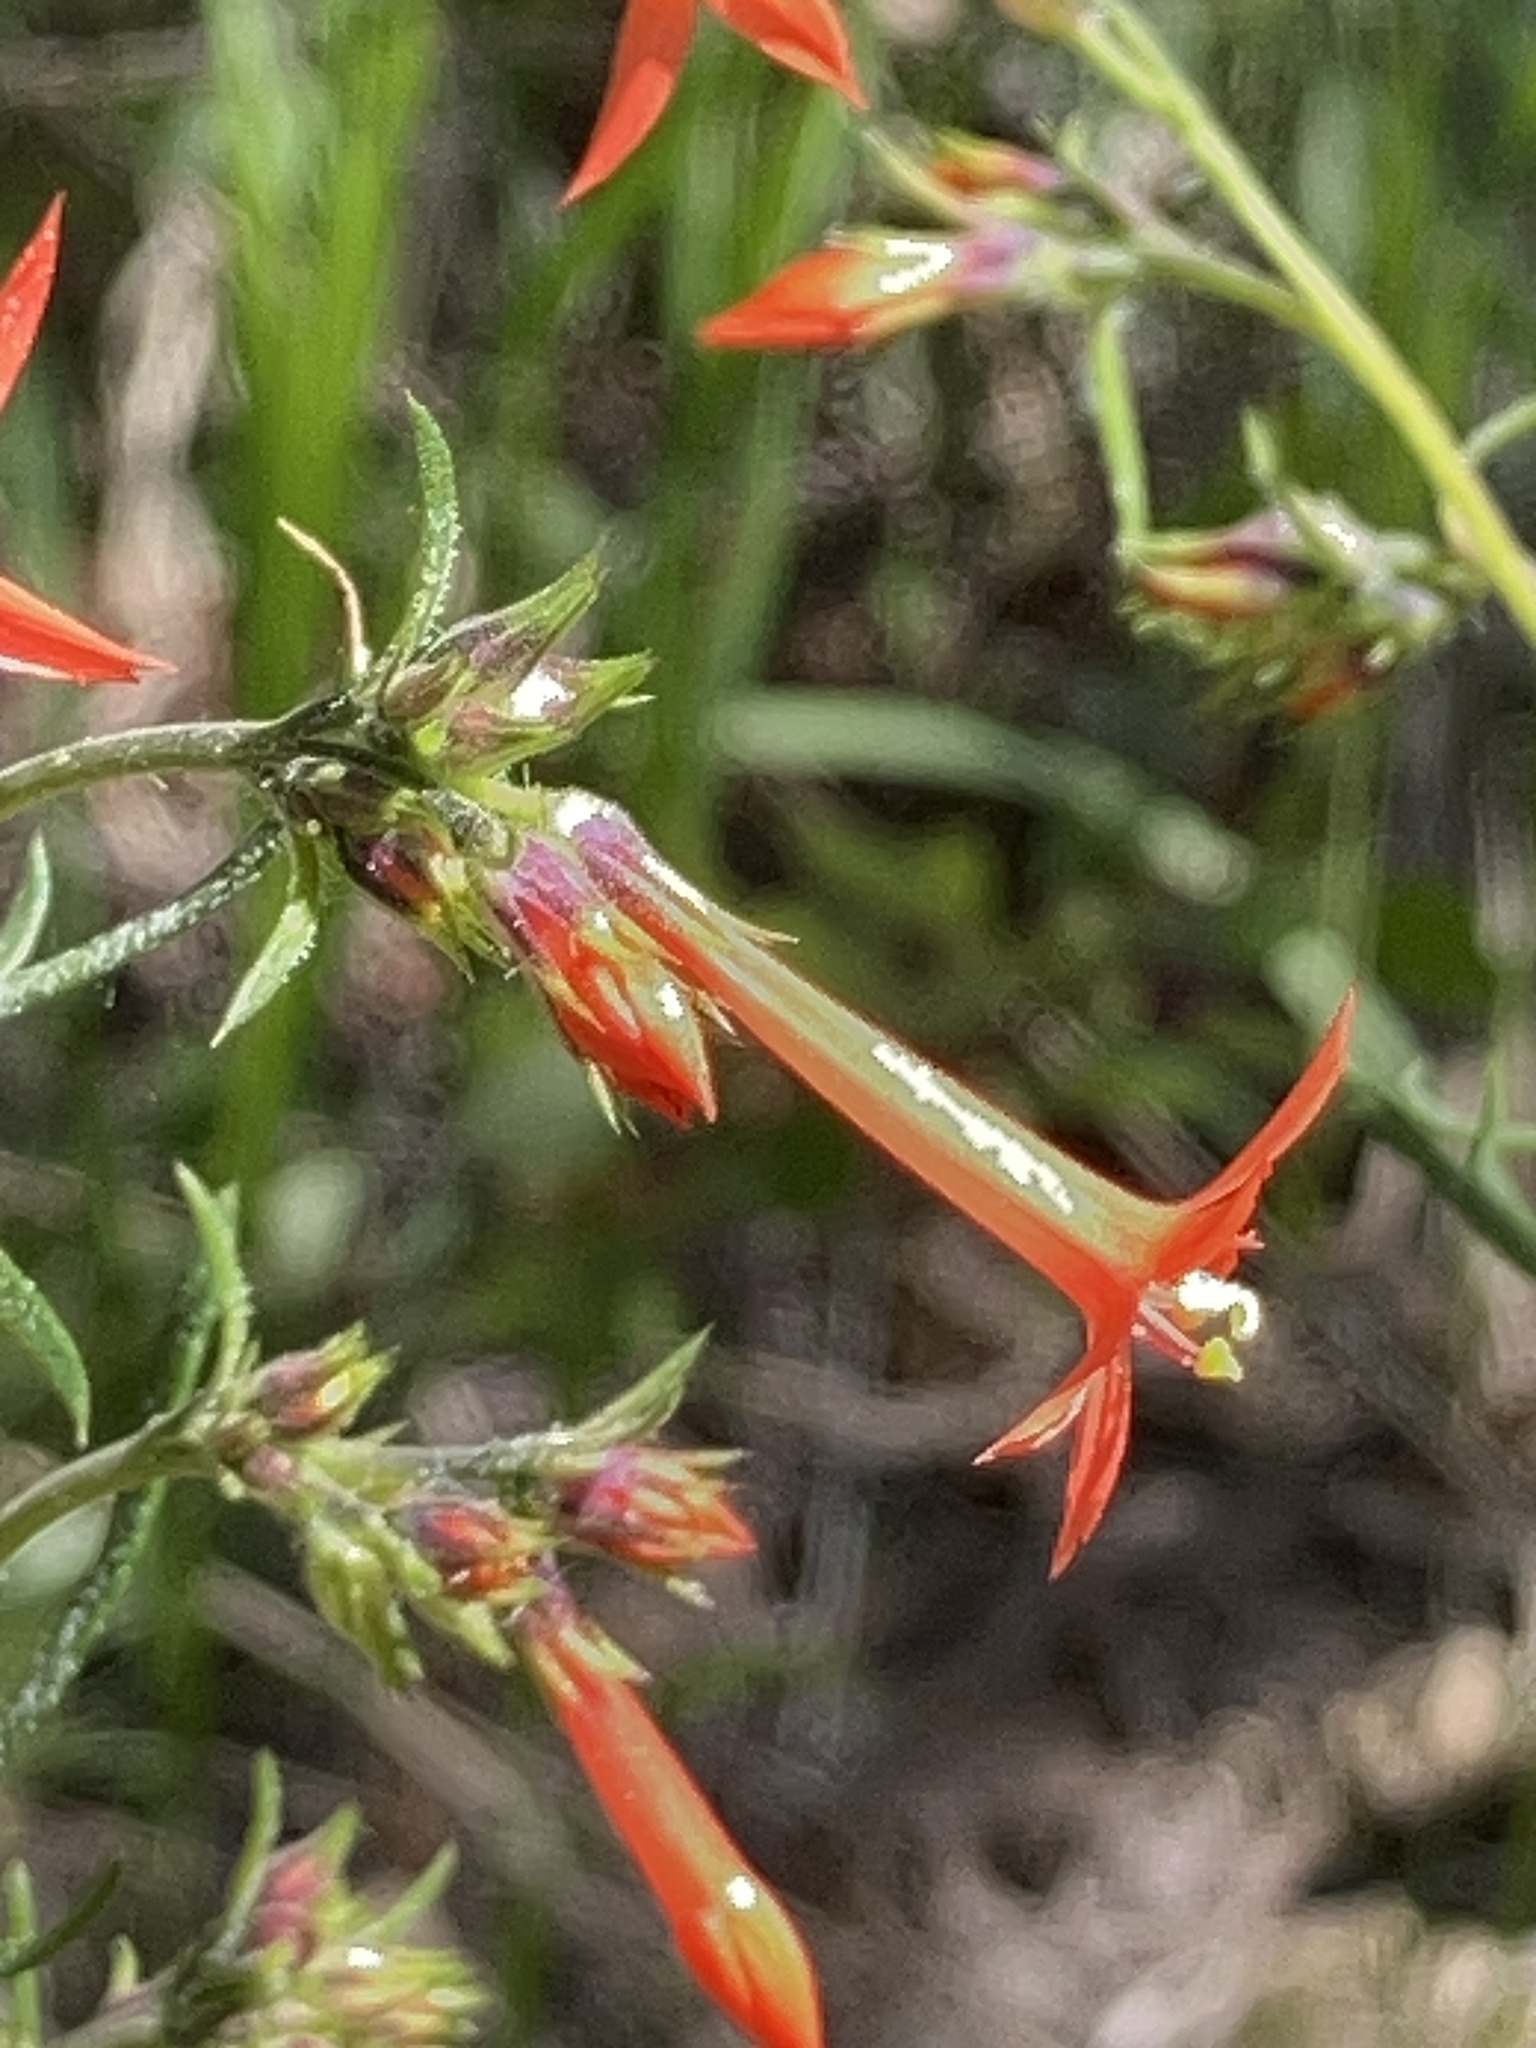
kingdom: Plantae
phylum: Tracheophyta
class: Magnoliopsida
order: Ericales
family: Polemoniaceae
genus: Ipomopsis
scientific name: Ipomopsis aggregata
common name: Scarlet gilia
